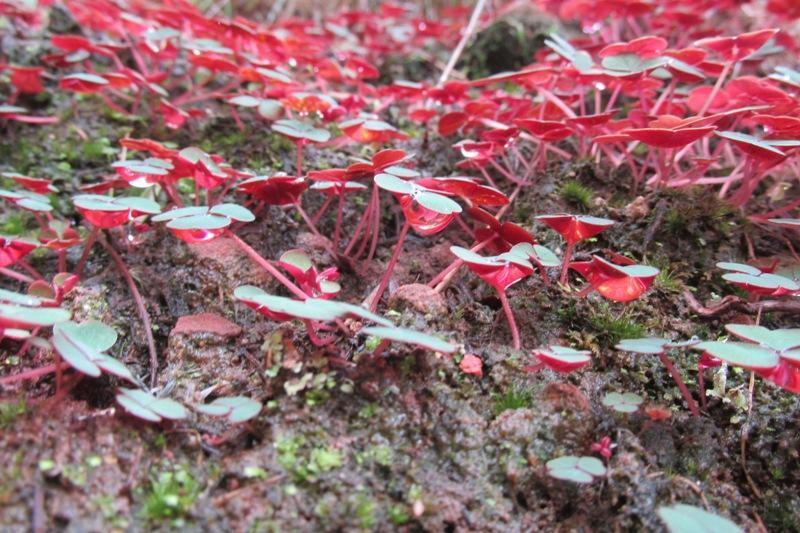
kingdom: Plantae
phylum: Tracheophyta
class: Magnoliopsida
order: Oxalidales
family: Oxalidaceae
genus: Oxalis
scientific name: Oxalis commutata
